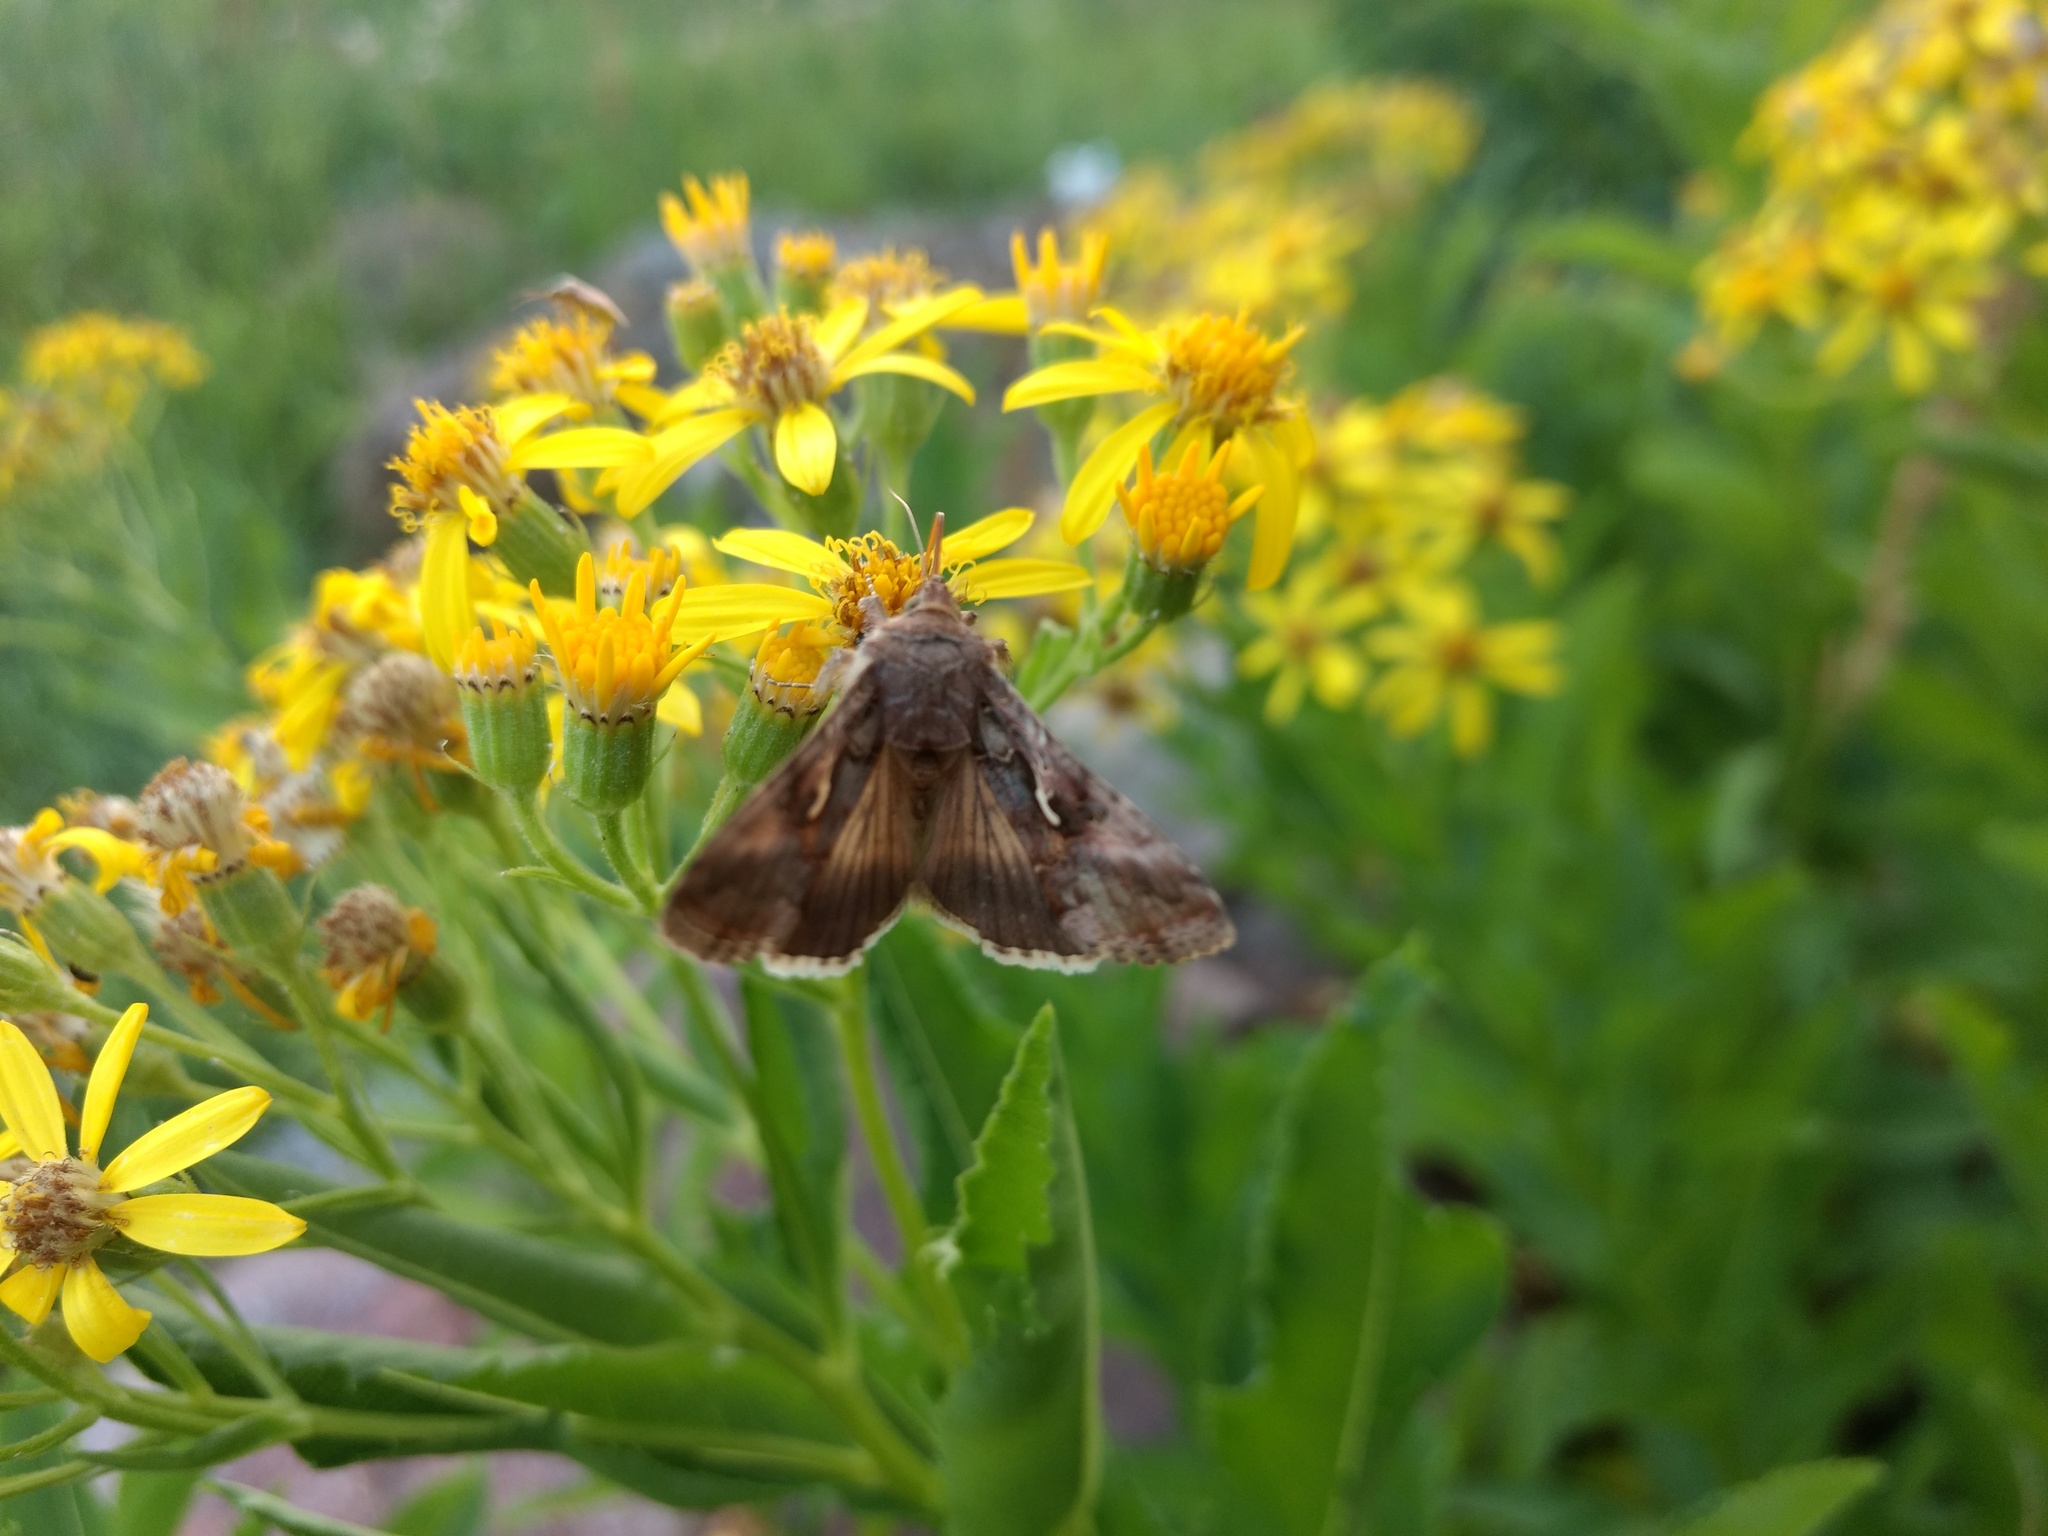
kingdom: Animalia
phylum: Arthropoda
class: Insecta
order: Lepidoptera
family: Noctuidae
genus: Autographa
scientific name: Autographa gamma
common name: Silver y
